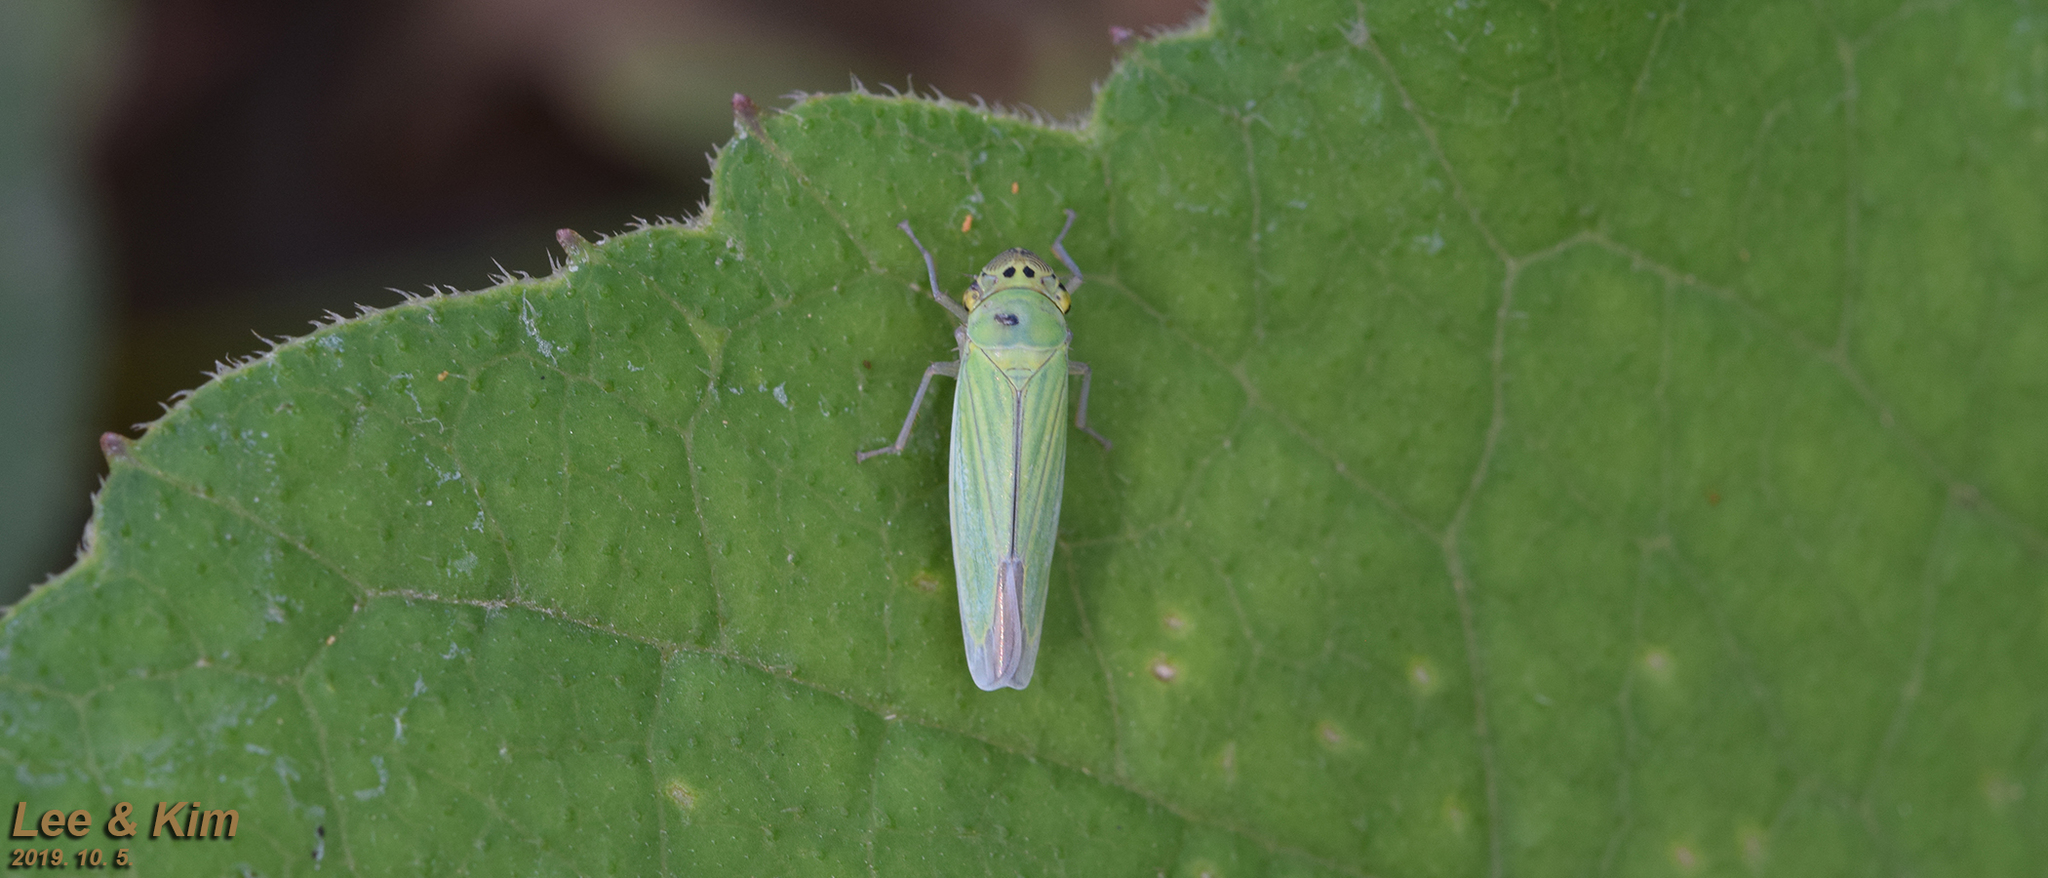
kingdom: Animalia
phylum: Arthropoda
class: Insecta
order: Hemiptera
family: Cicadellidae
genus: Cicadella
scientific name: Cicadella viridis
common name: Leafhopper
